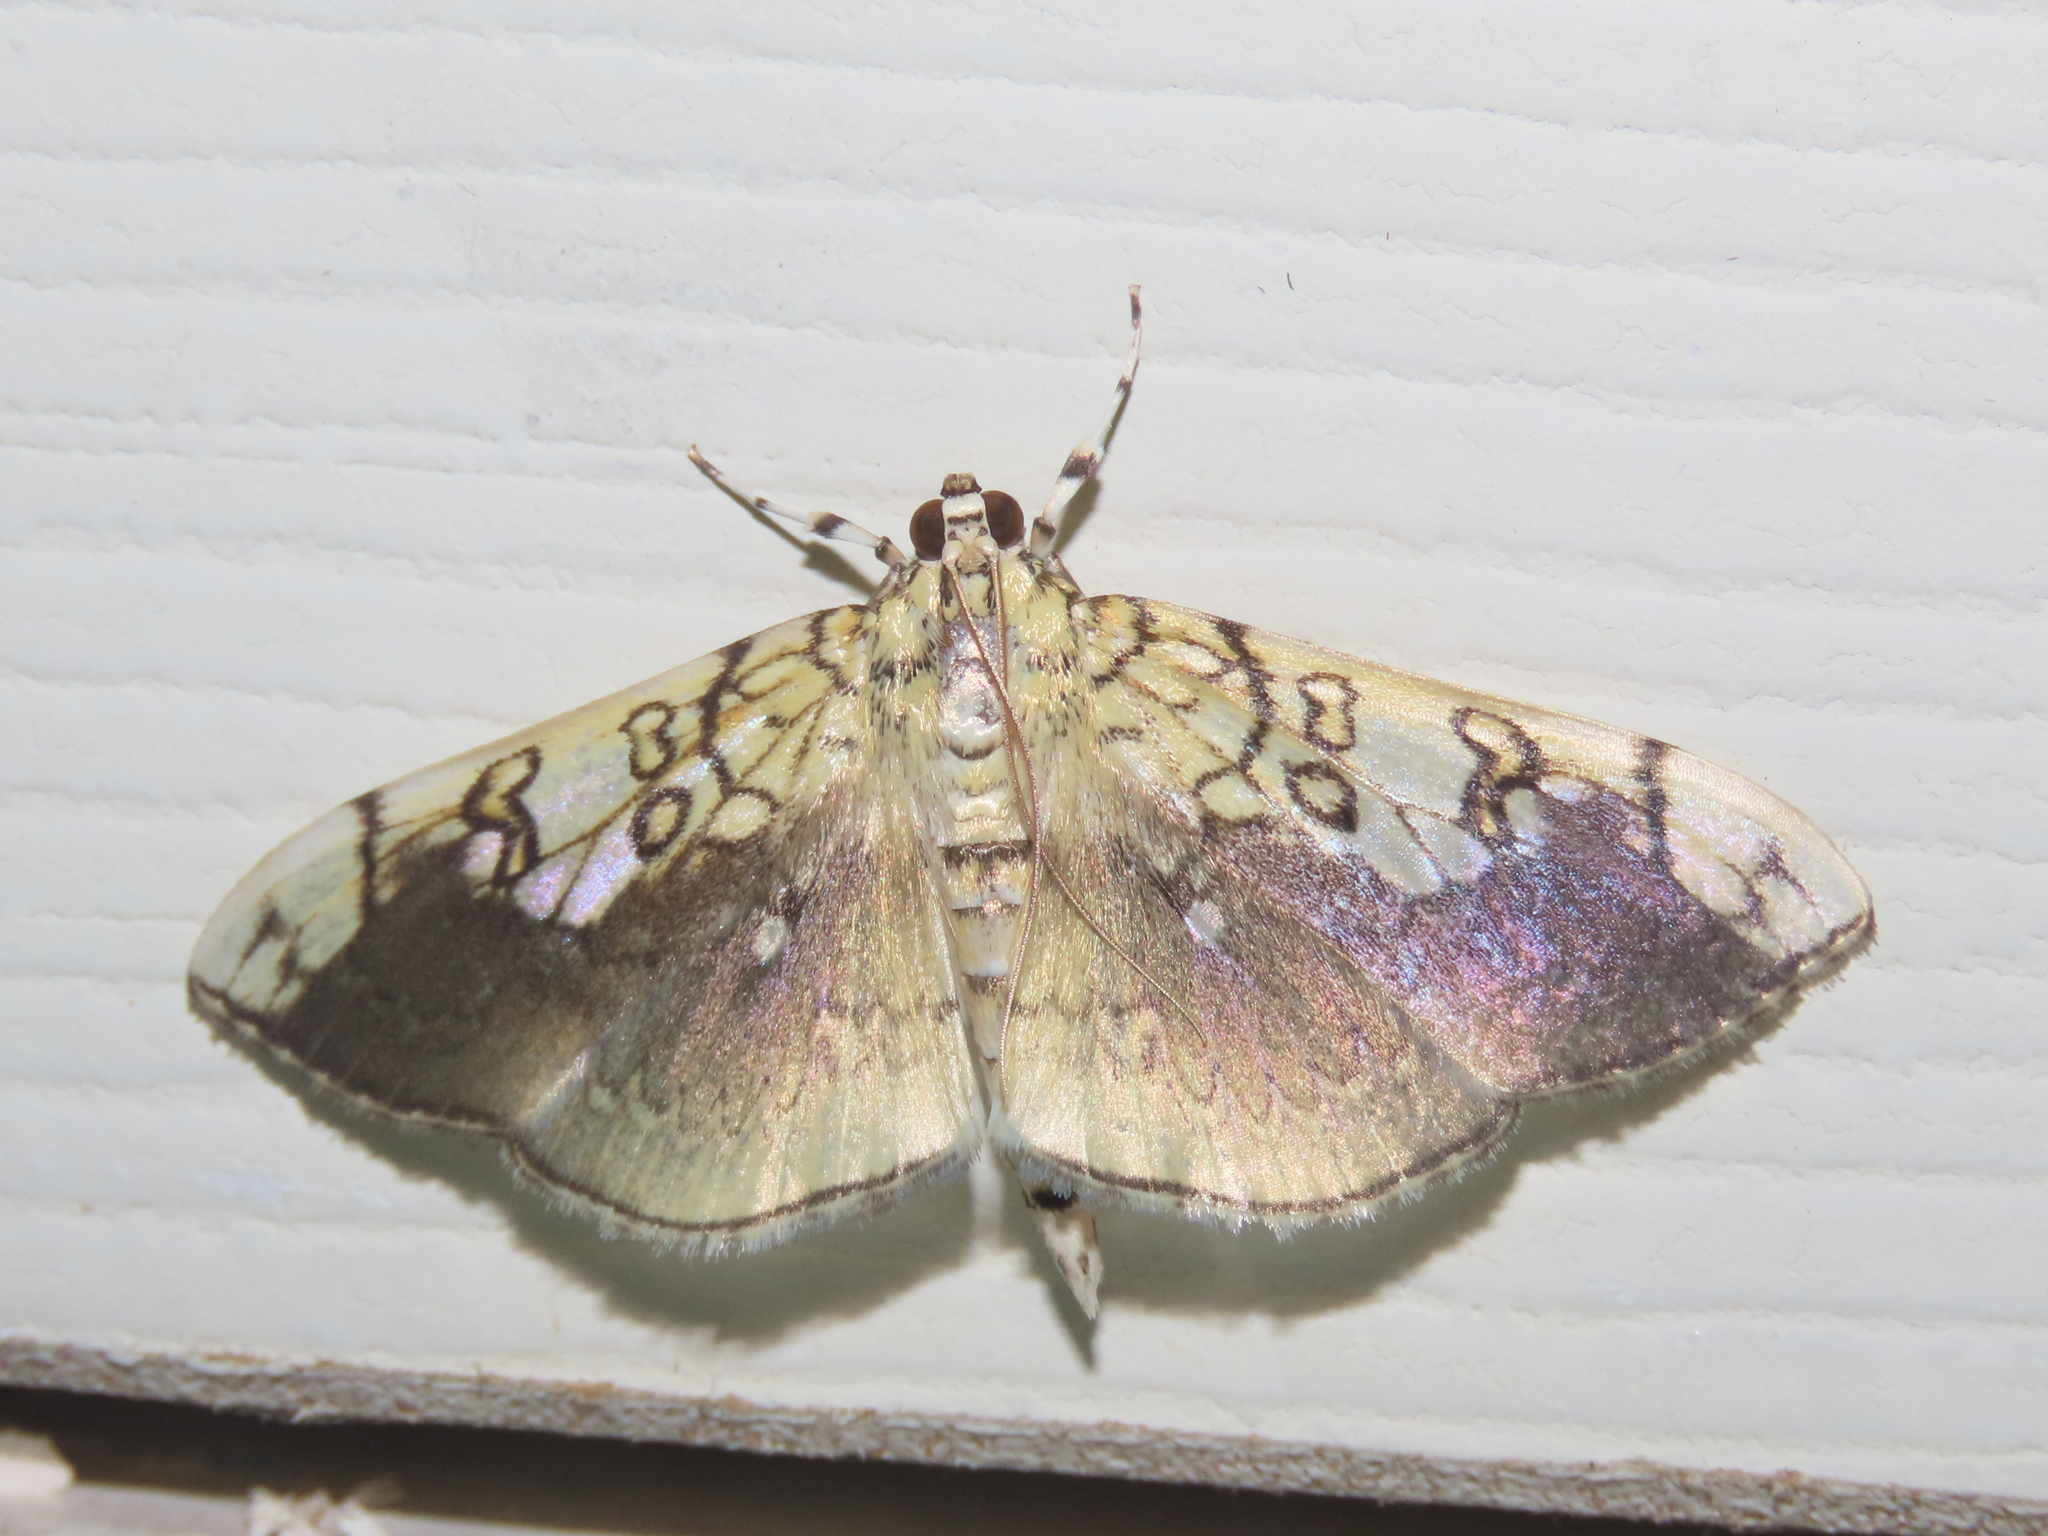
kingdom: Animalia
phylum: Arthropoda
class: Insecta
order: Lepidoptera
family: Crambidae
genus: Pantographa
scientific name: Pantographa limata
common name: Basswood leafroller moth
